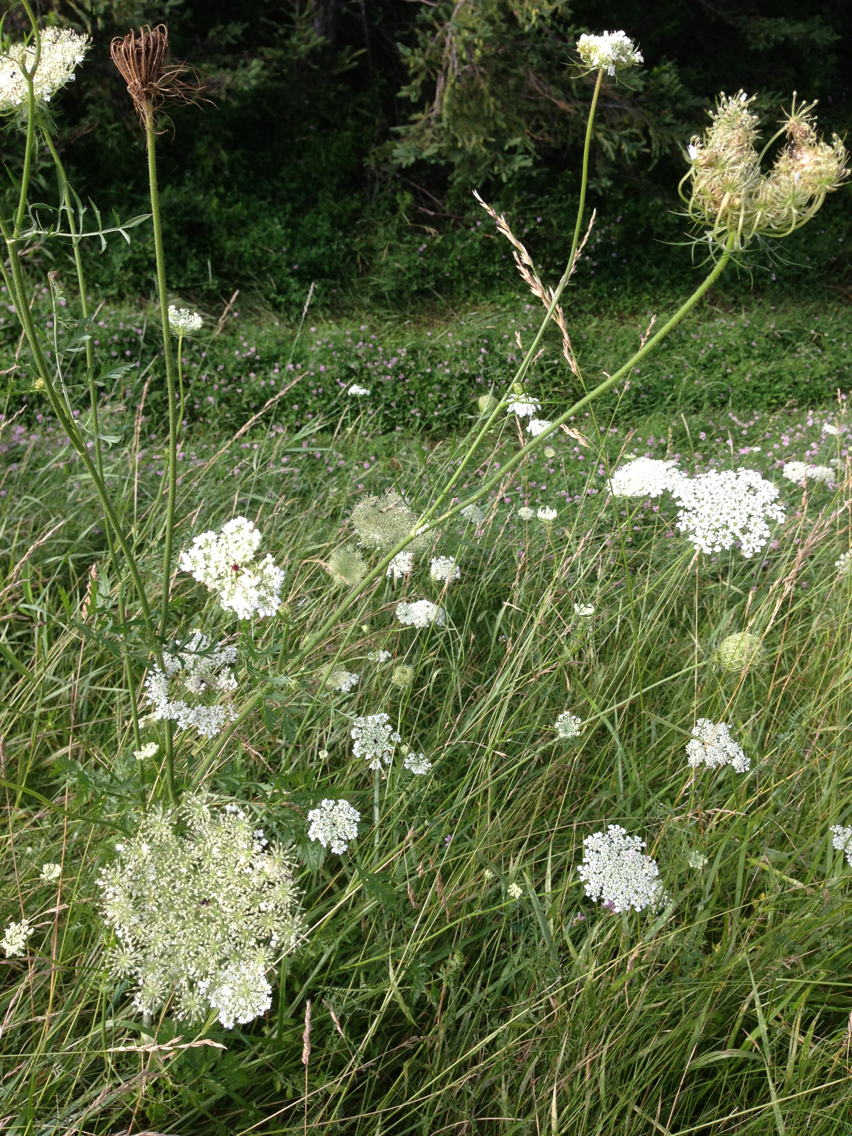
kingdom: Plantae
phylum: Tracheophyta
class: Magnoliopsida
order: Apiales
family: Apiaceae
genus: Daucus
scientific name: Daucus carota
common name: Wild carrot
